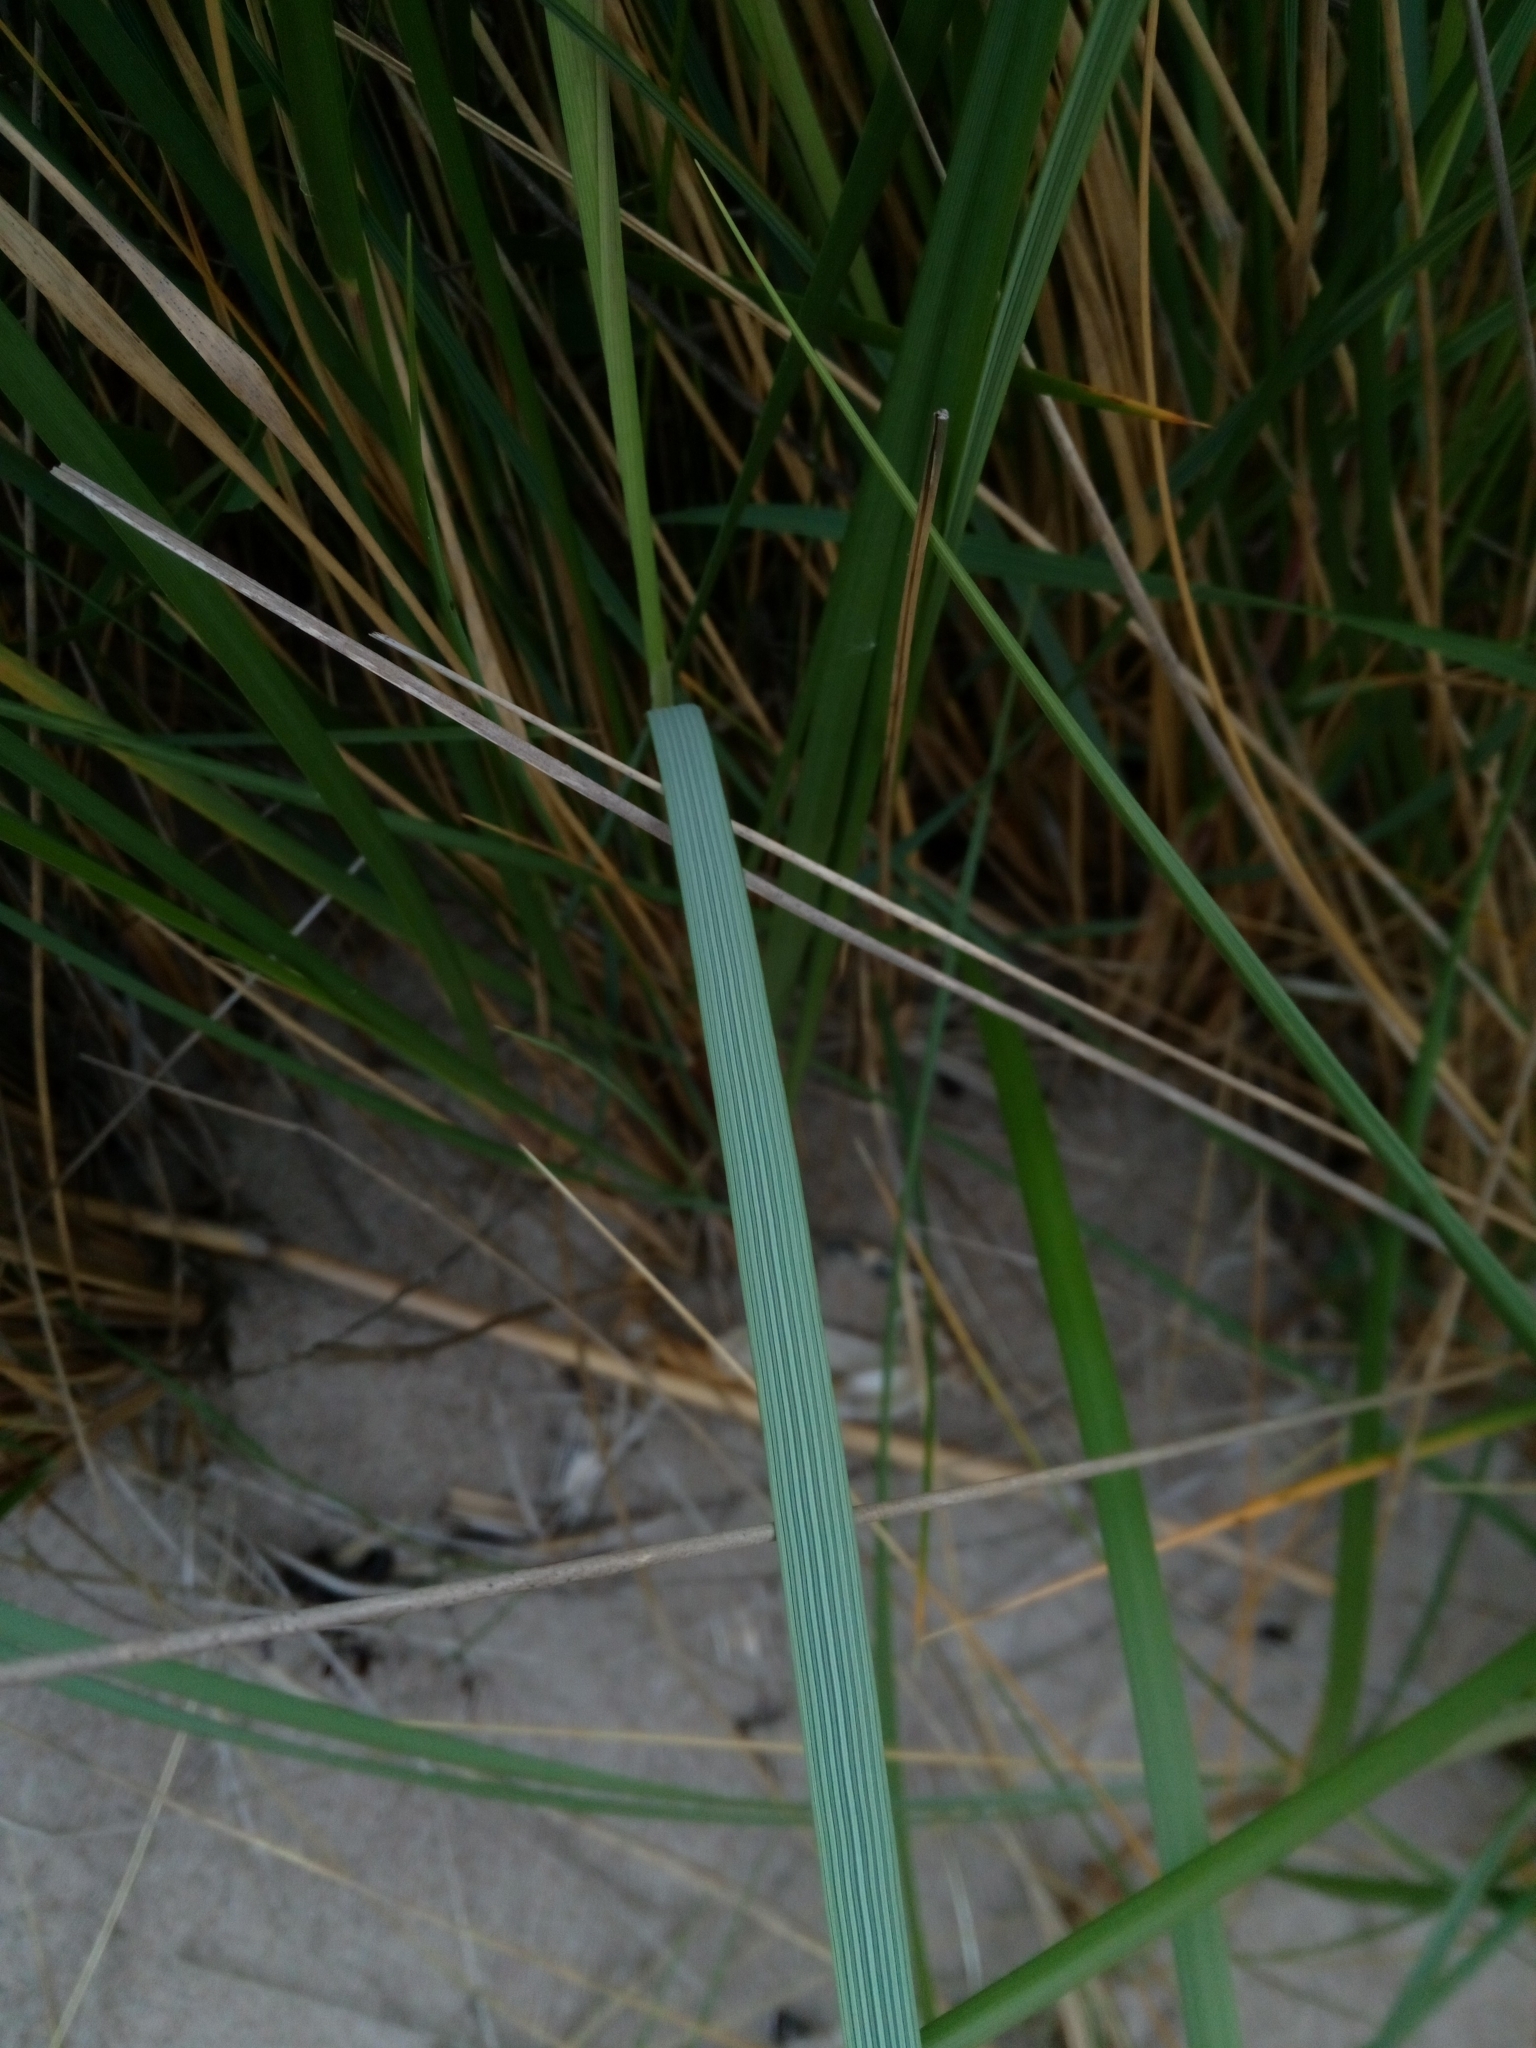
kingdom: Plantae
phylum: Tracheophyta
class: Liliopsida
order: Poales
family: Poaceae
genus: Calamagrostis
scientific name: Calamagrostis arenaria
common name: European beachgrass
